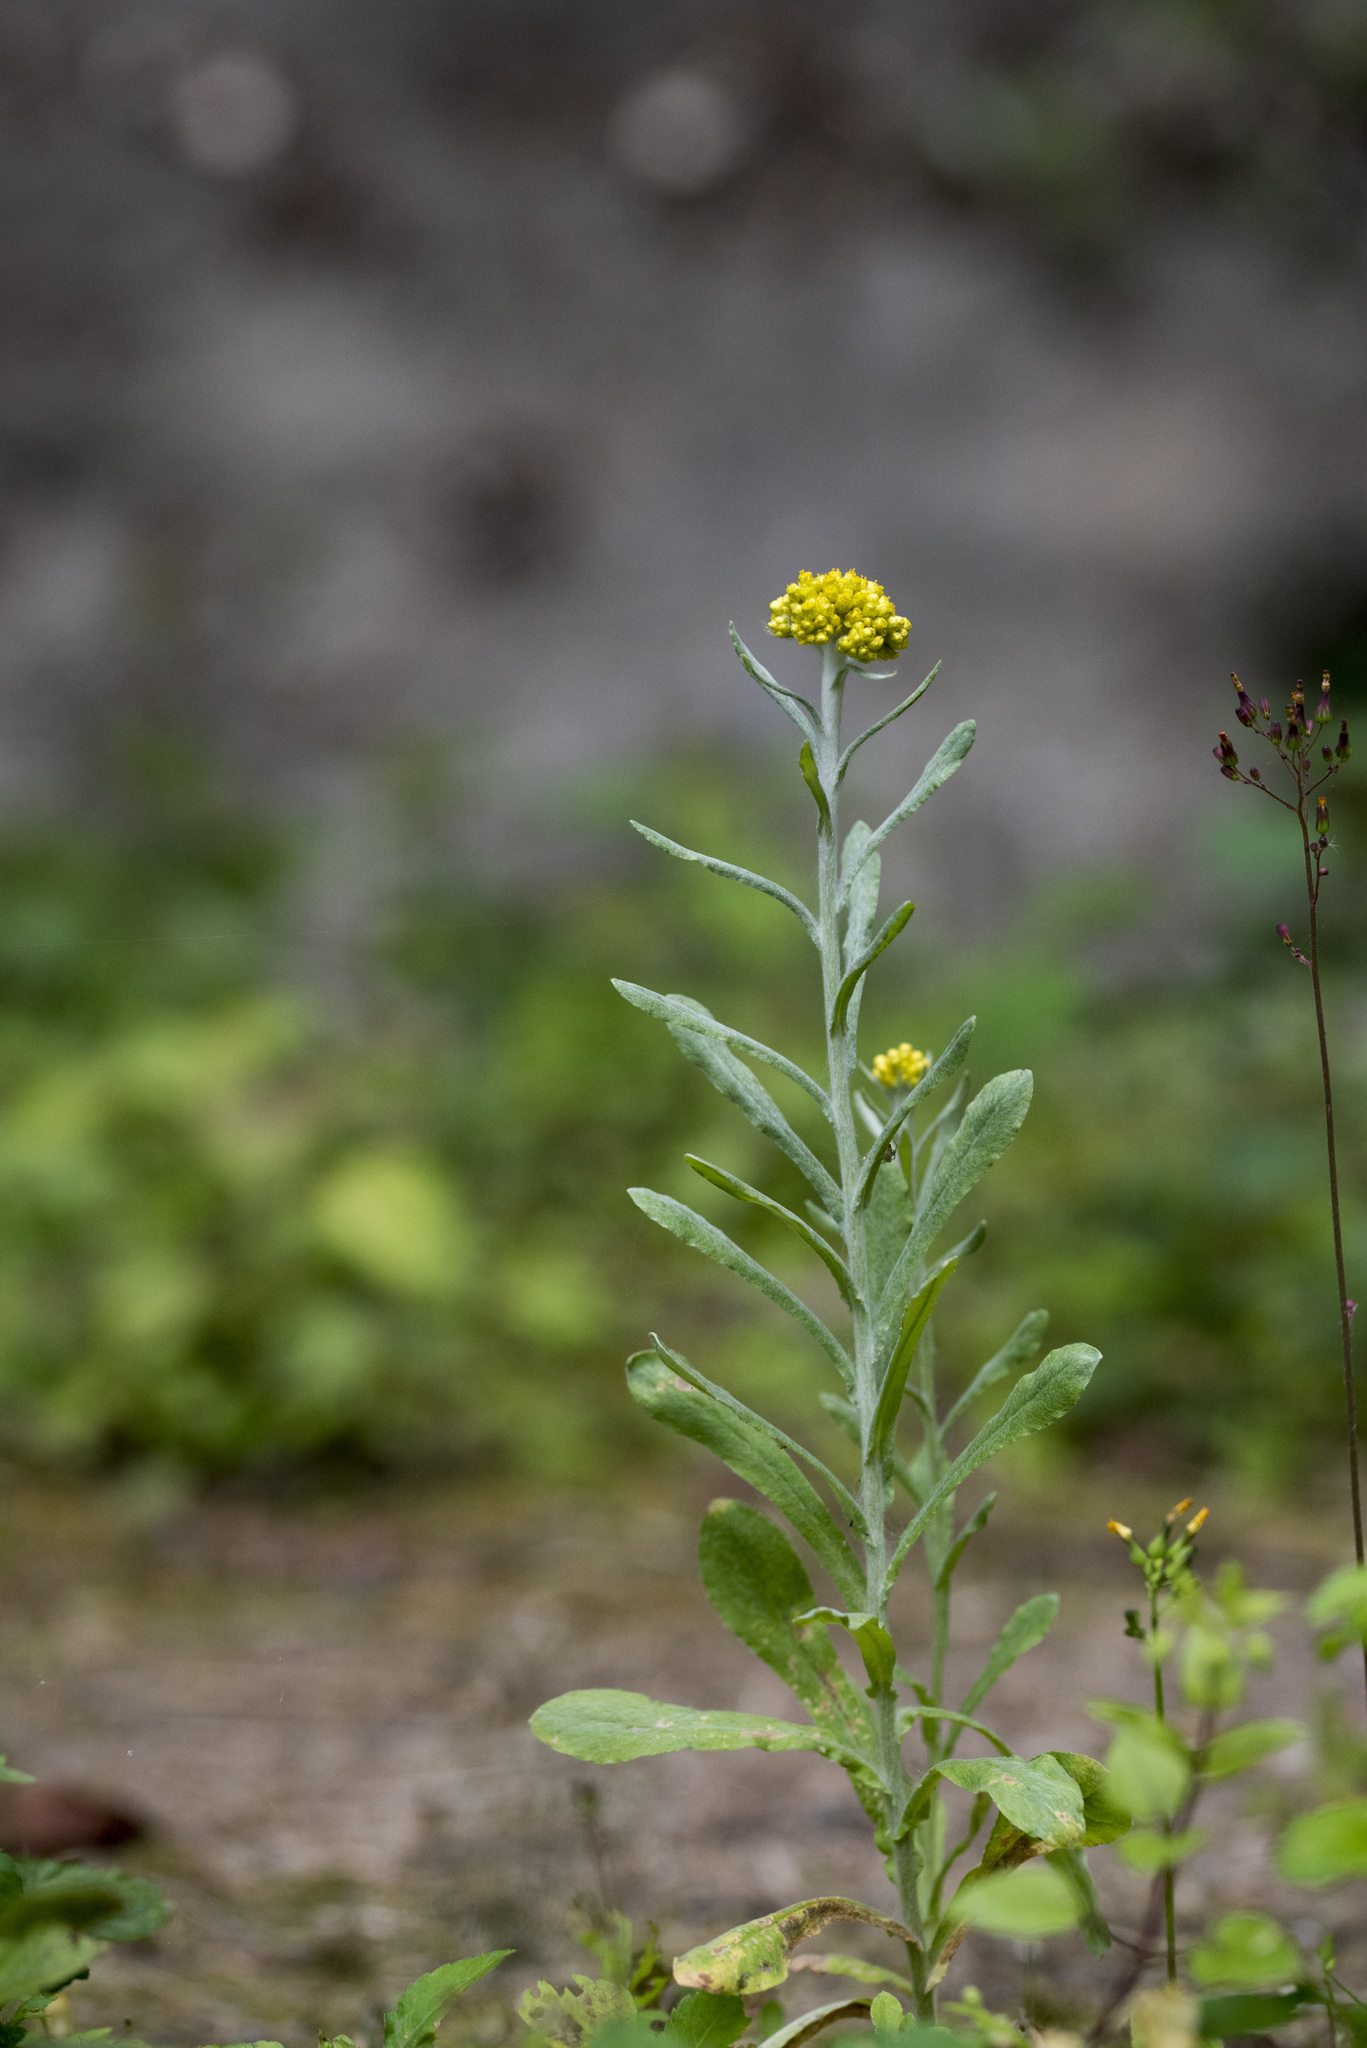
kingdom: Plantae
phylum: Tracheophyta
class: Magnoliopsida
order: Asterales
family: Asteraceae
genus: Pseudognaphalium
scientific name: Pseudognaphalium affine
